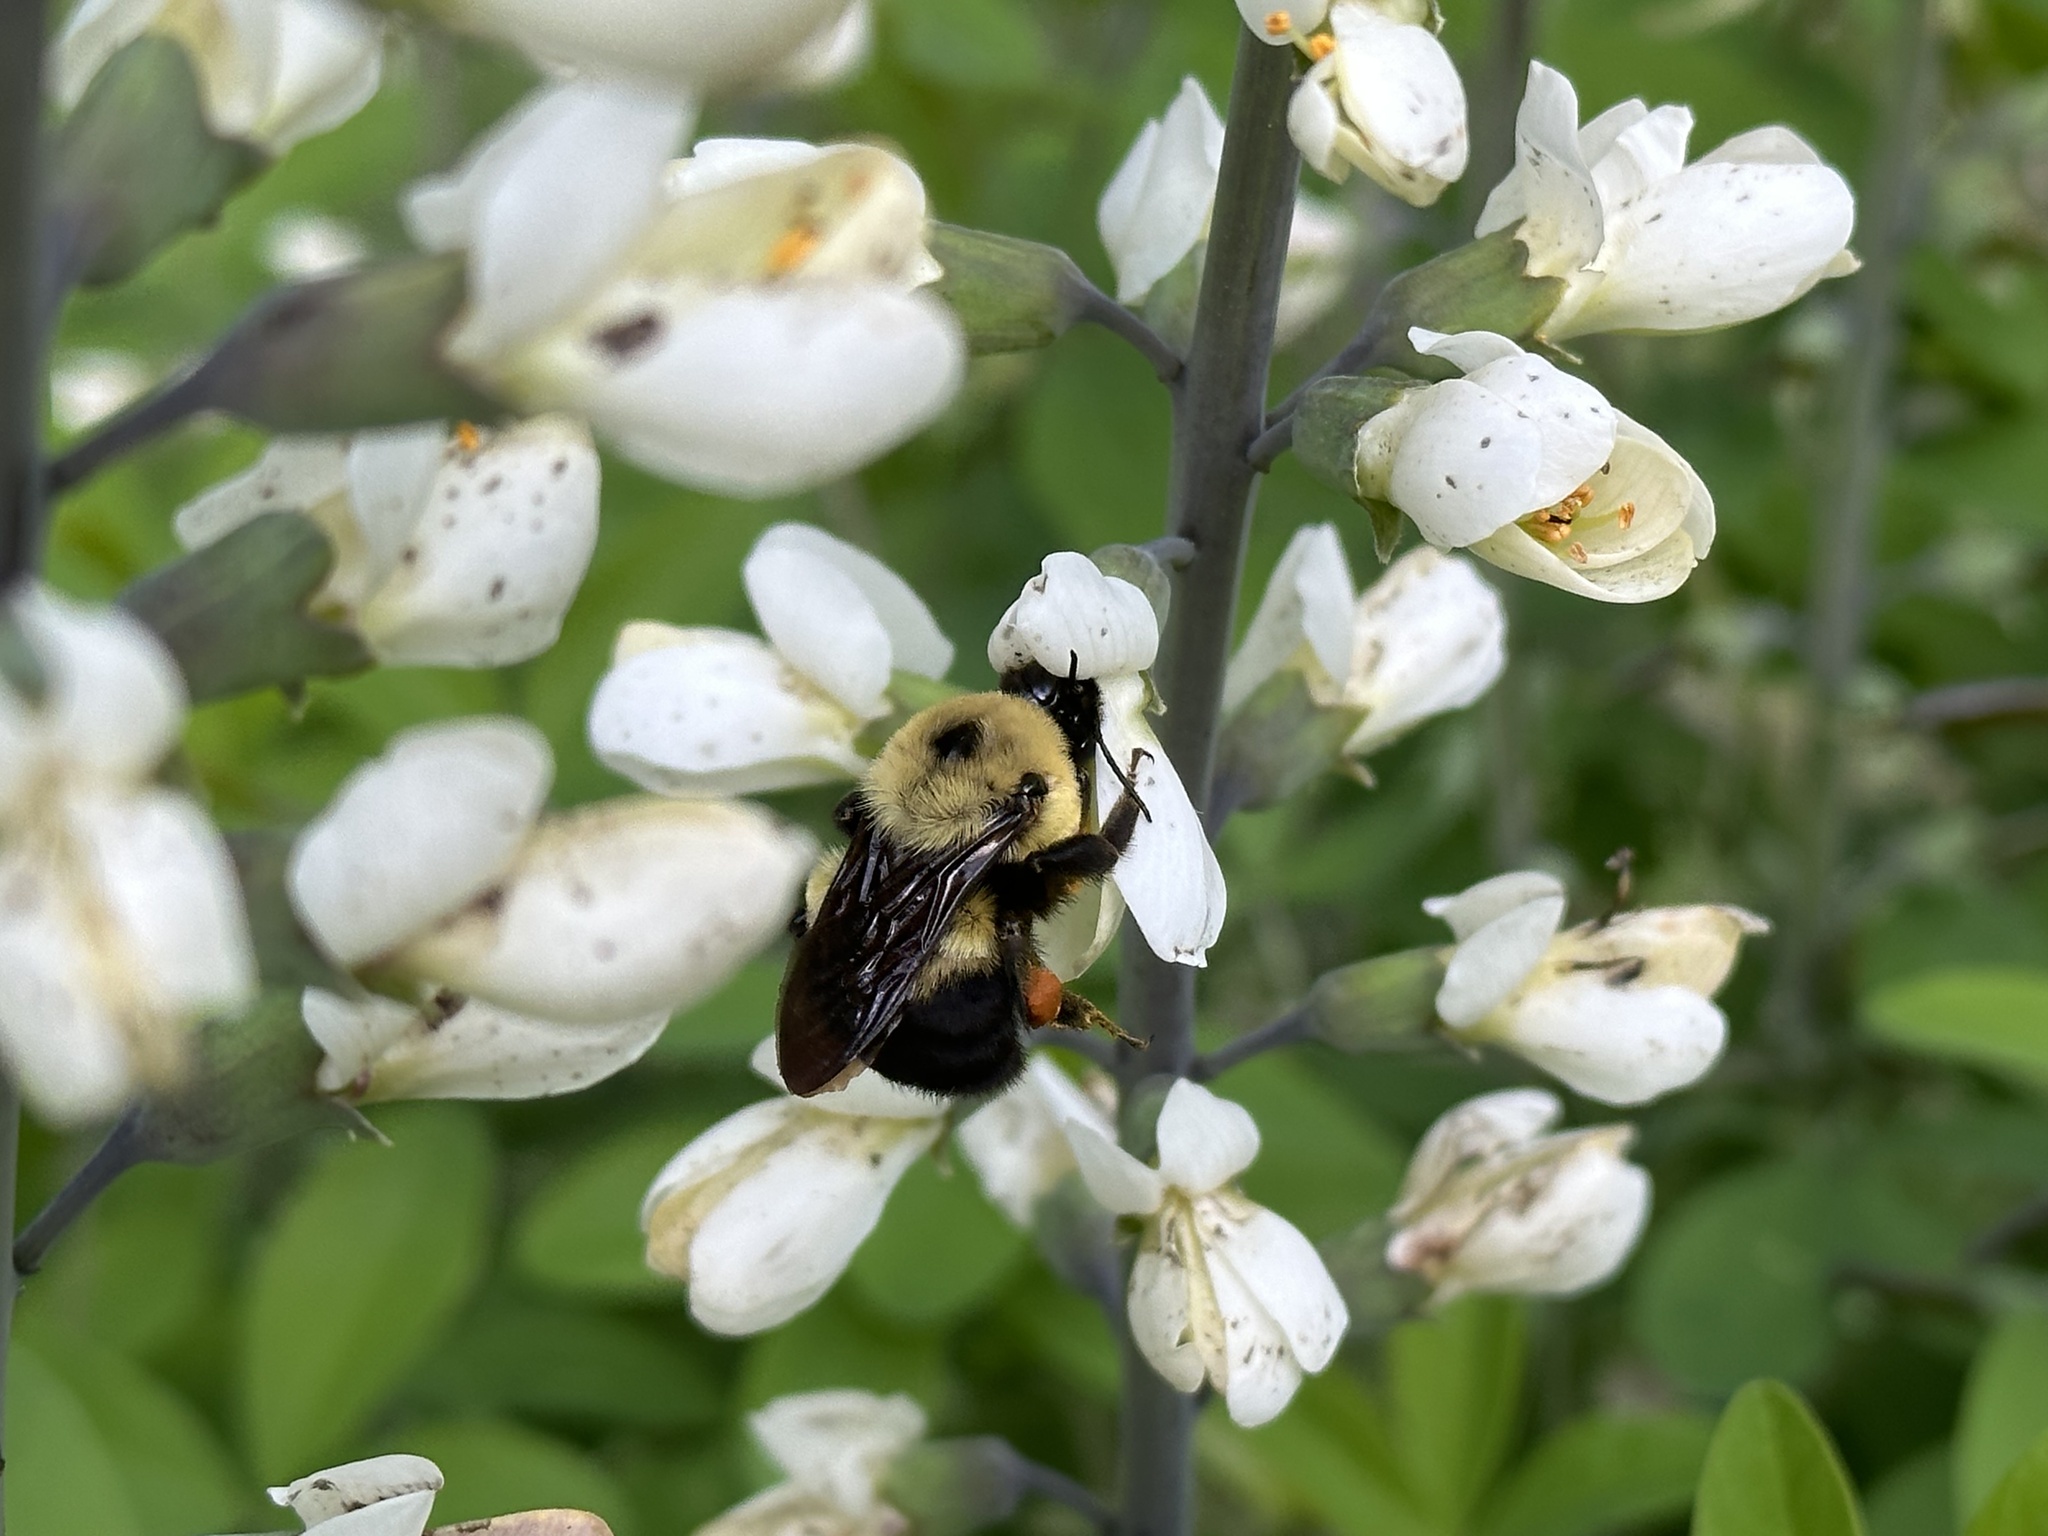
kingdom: Animalia
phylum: Arthropoda
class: Insecta
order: Hymenoptera
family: Apidae
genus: Bombus
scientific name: Bombus griseocollis
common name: Brown-belted bumble bee
